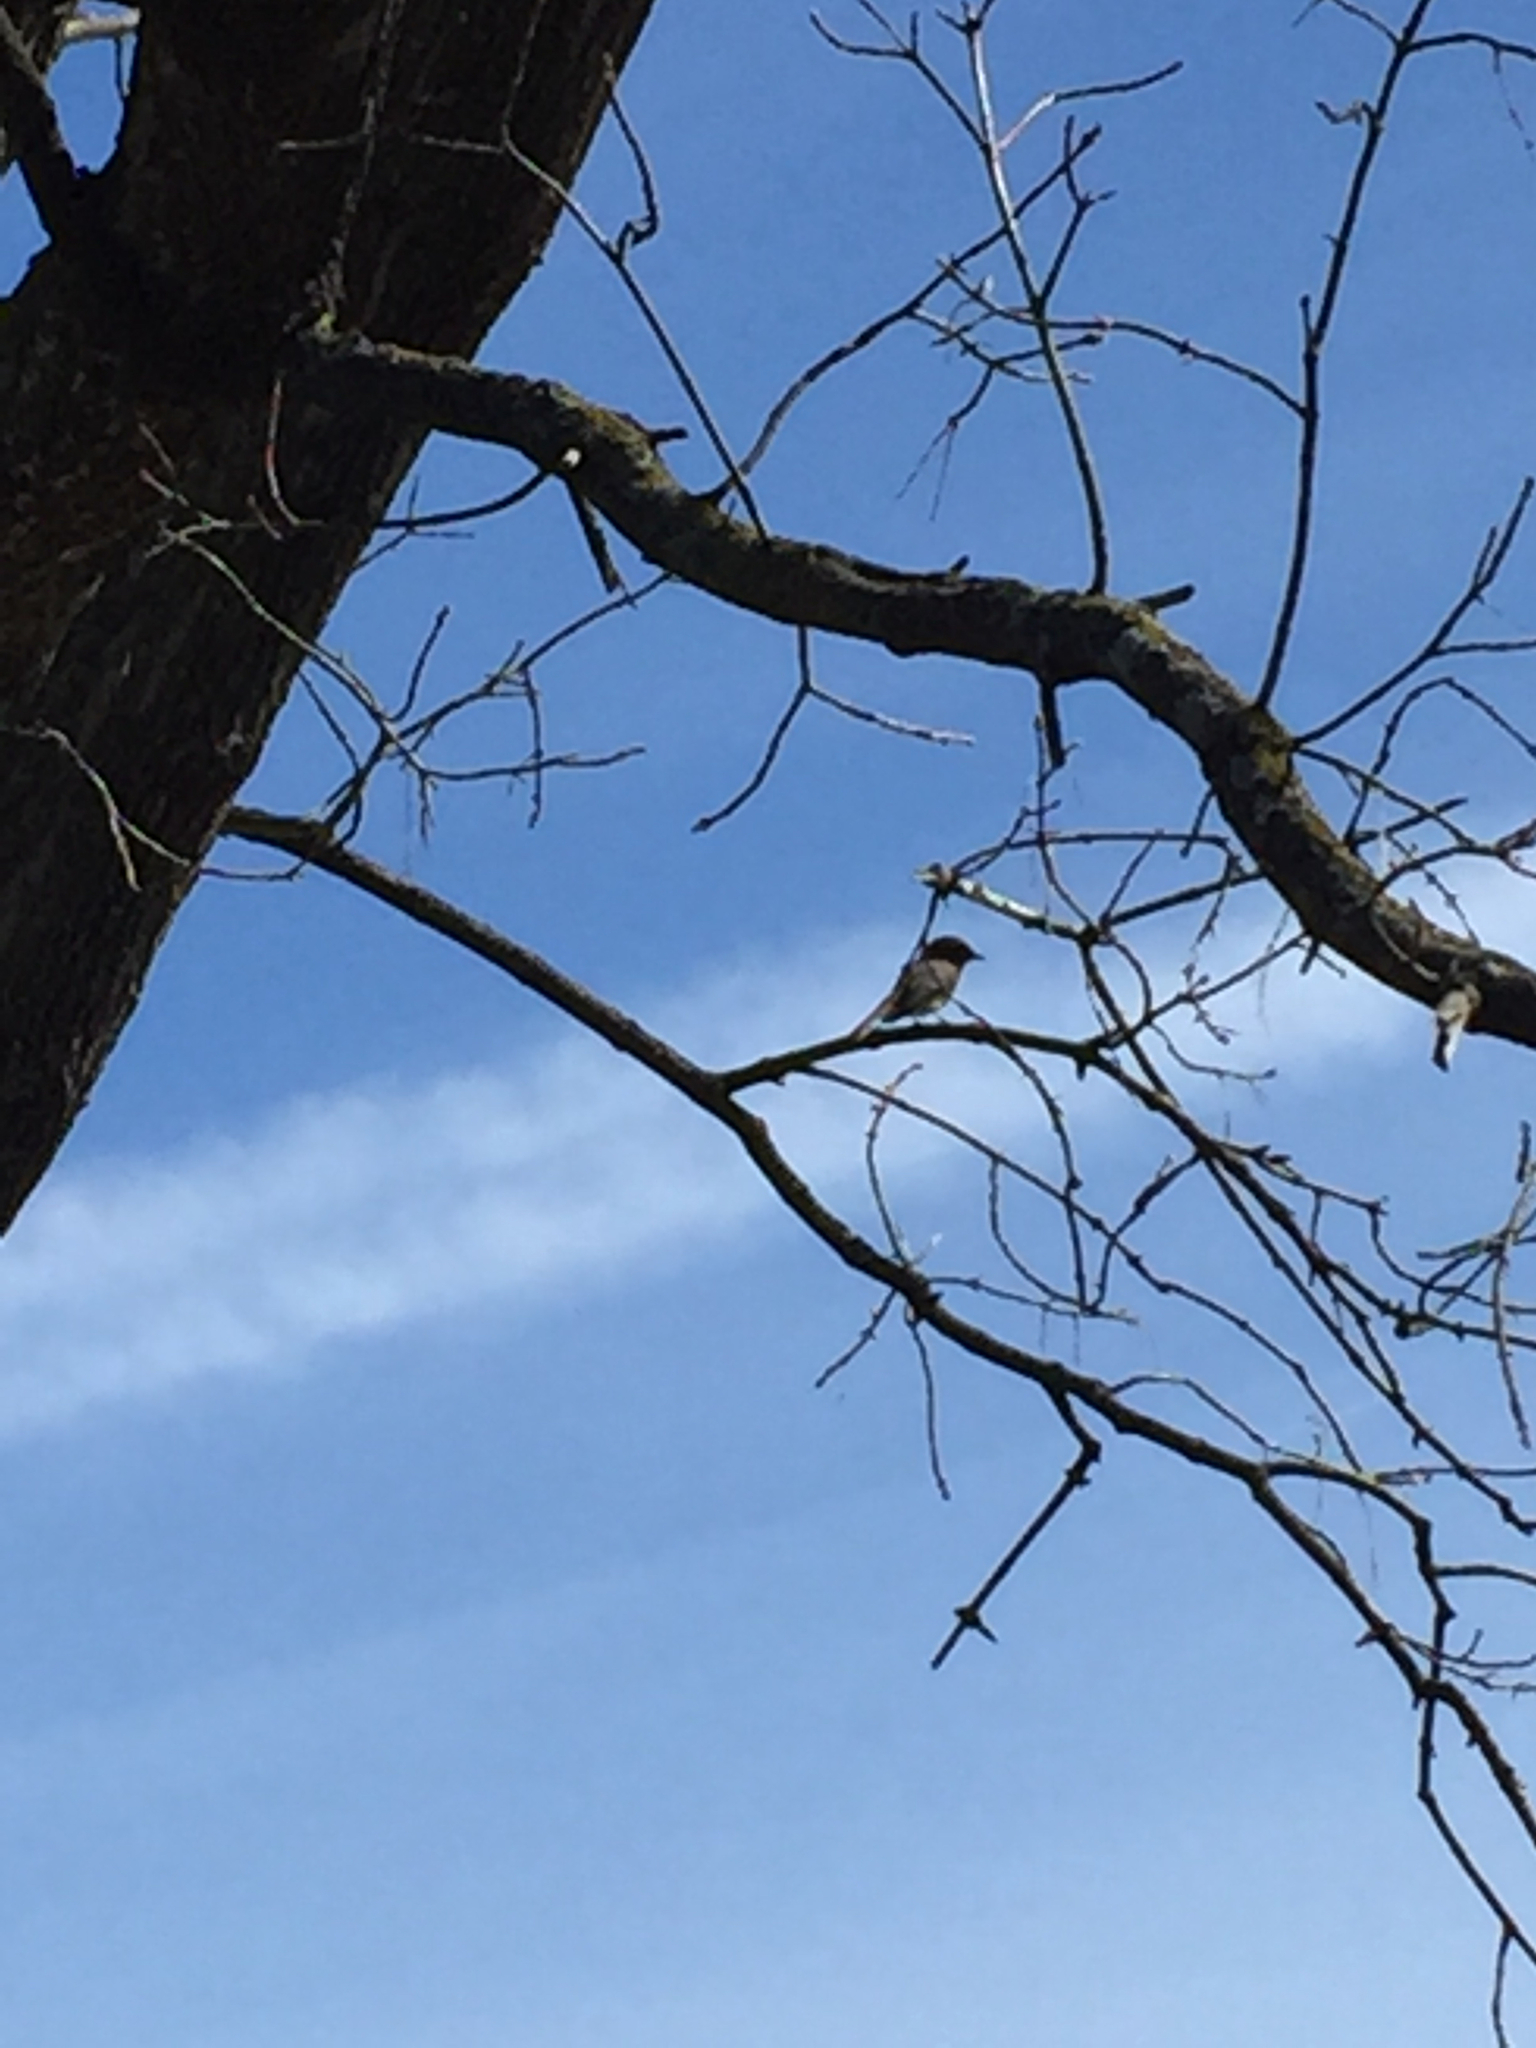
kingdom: Animalia
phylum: Chordata
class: Aves
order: Passeriformes
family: Tyrannidae
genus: Sayornis
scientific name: Sayornis phoebe
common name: Eastern phoebe
